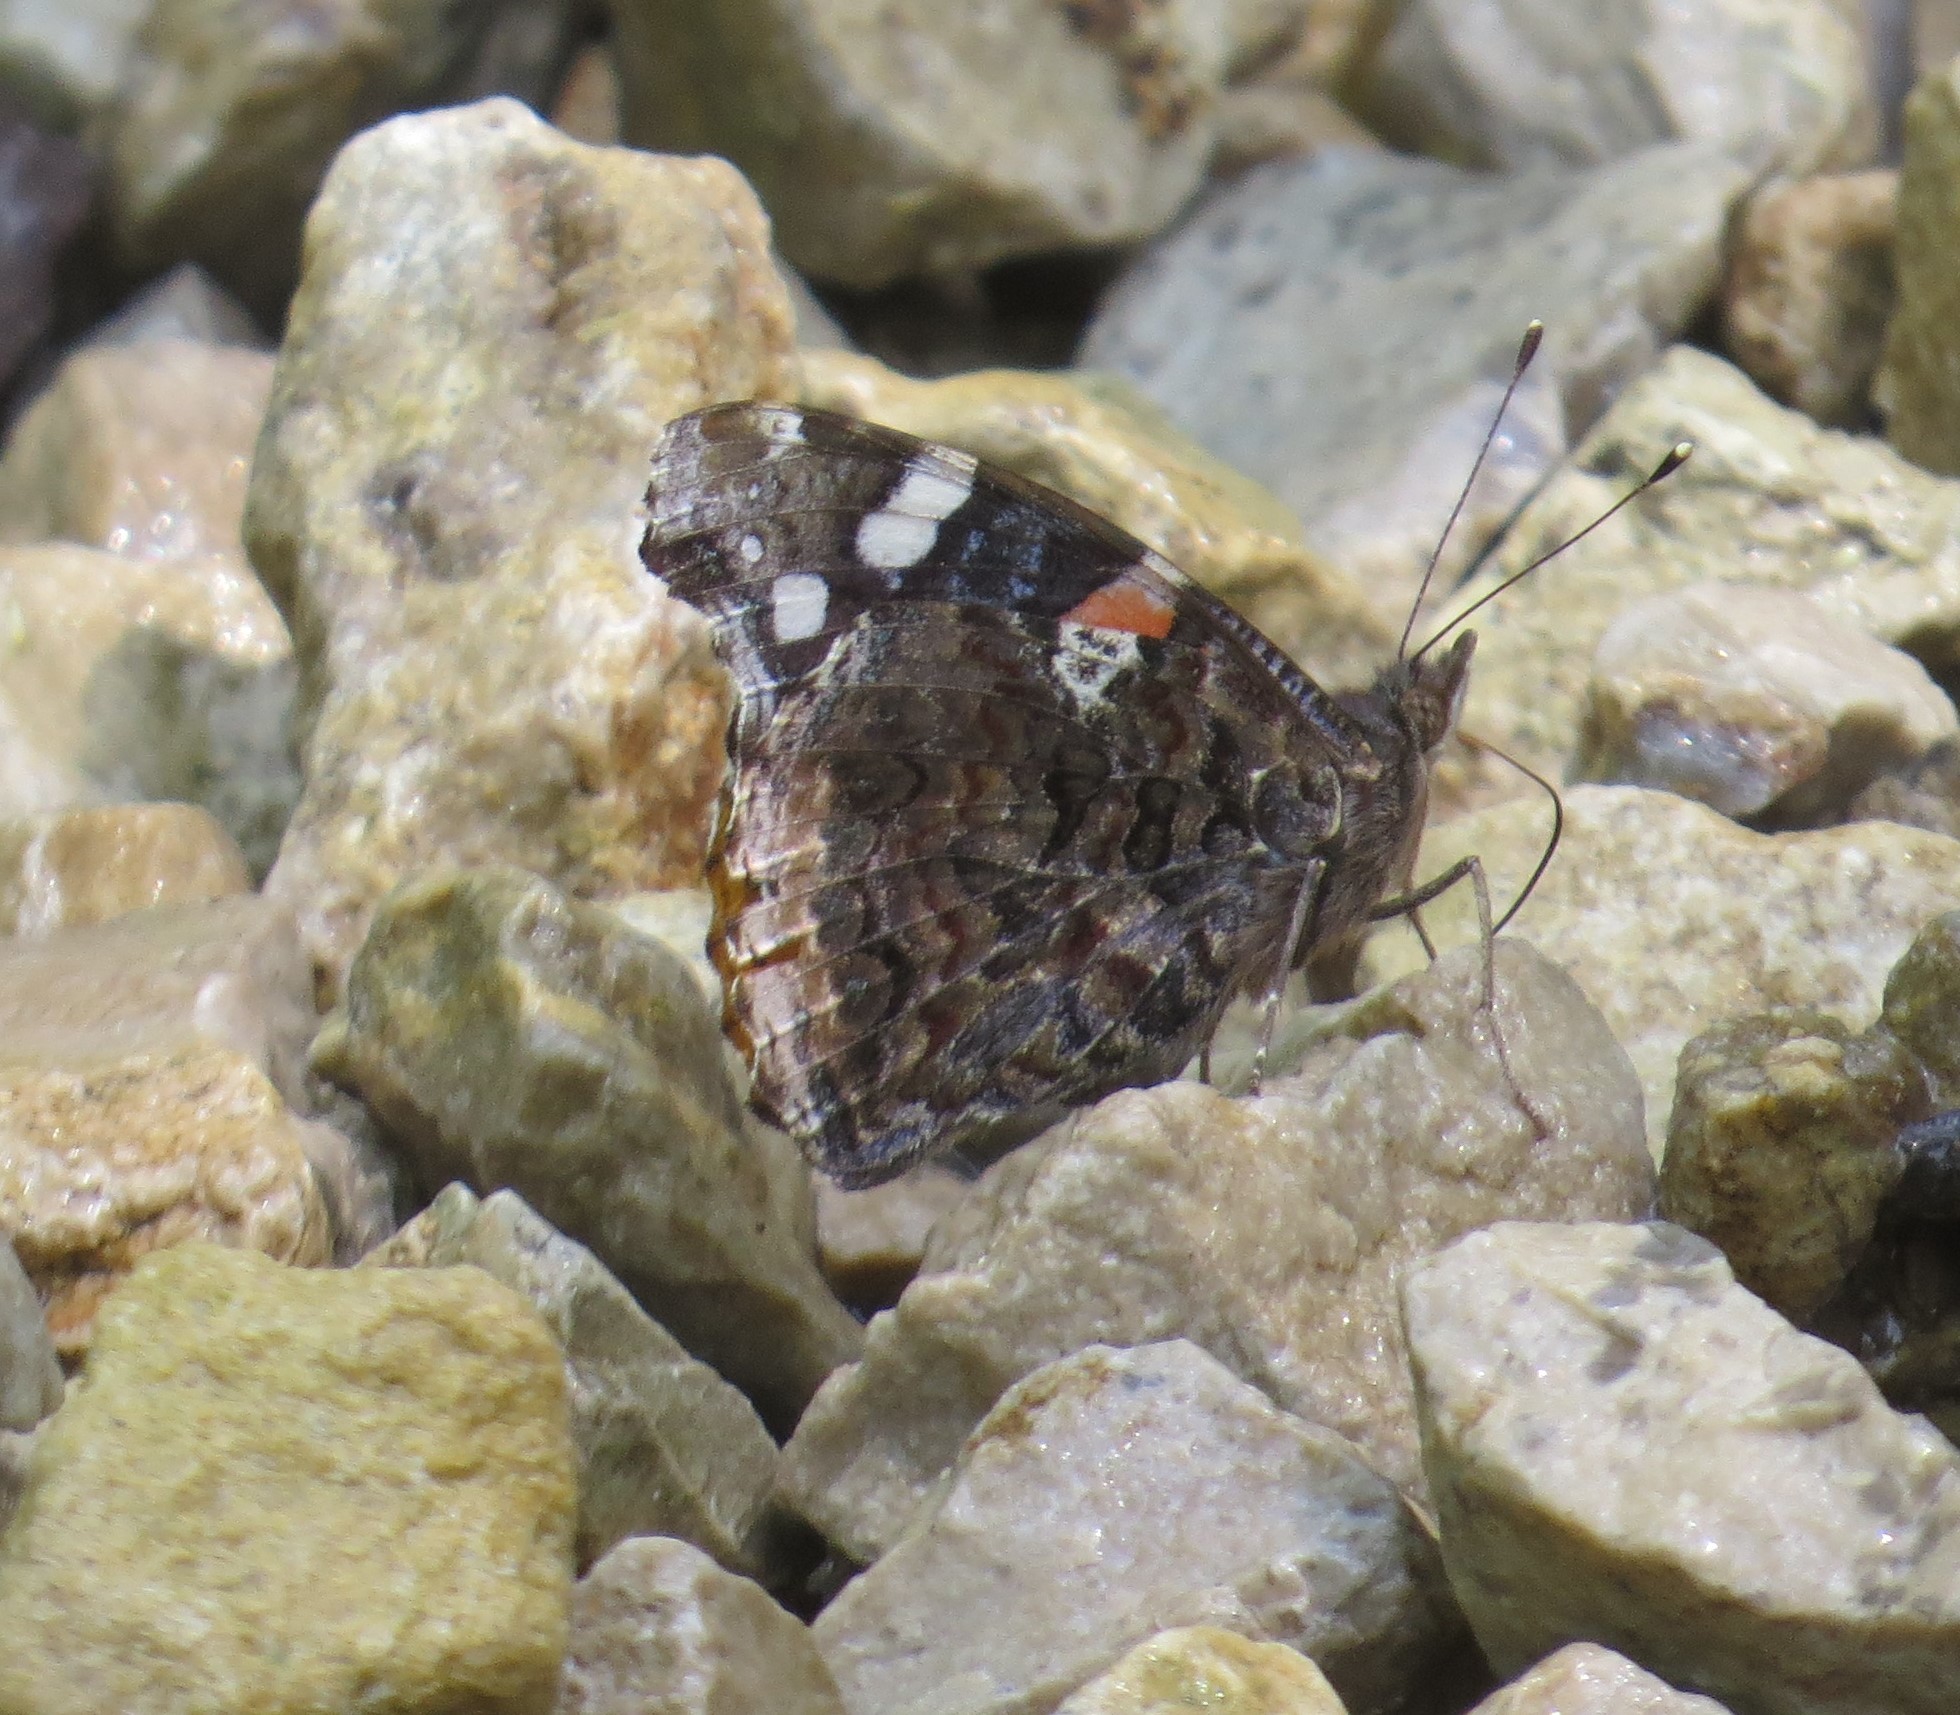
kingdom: Animalia
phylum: Arthropoda
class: Insecta
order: Lepidoptera
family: Nymphalidae
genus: Vanessa
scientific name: Vanessa atalanta
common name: Red admiral
